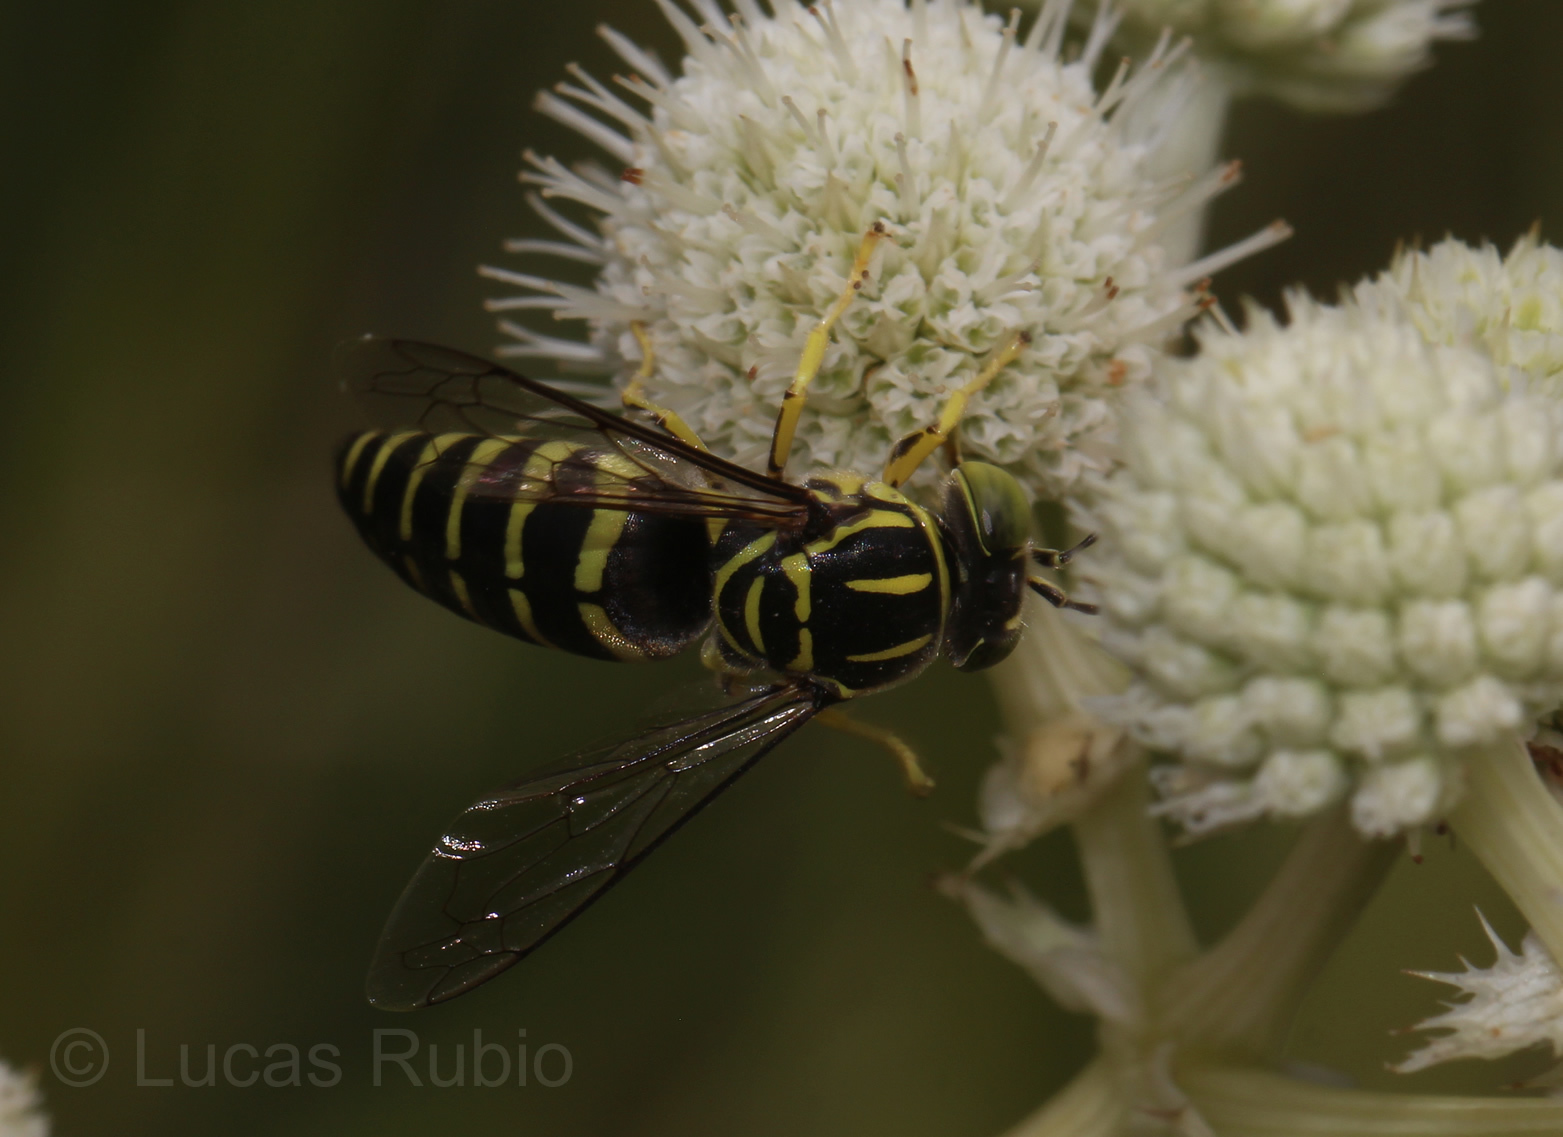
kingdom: Animalia
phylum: Arthropoda
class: Insecta
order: Hymenoptera
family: Crabronidae
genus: Bicyrtes
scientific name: Bicyrtes variegatus
